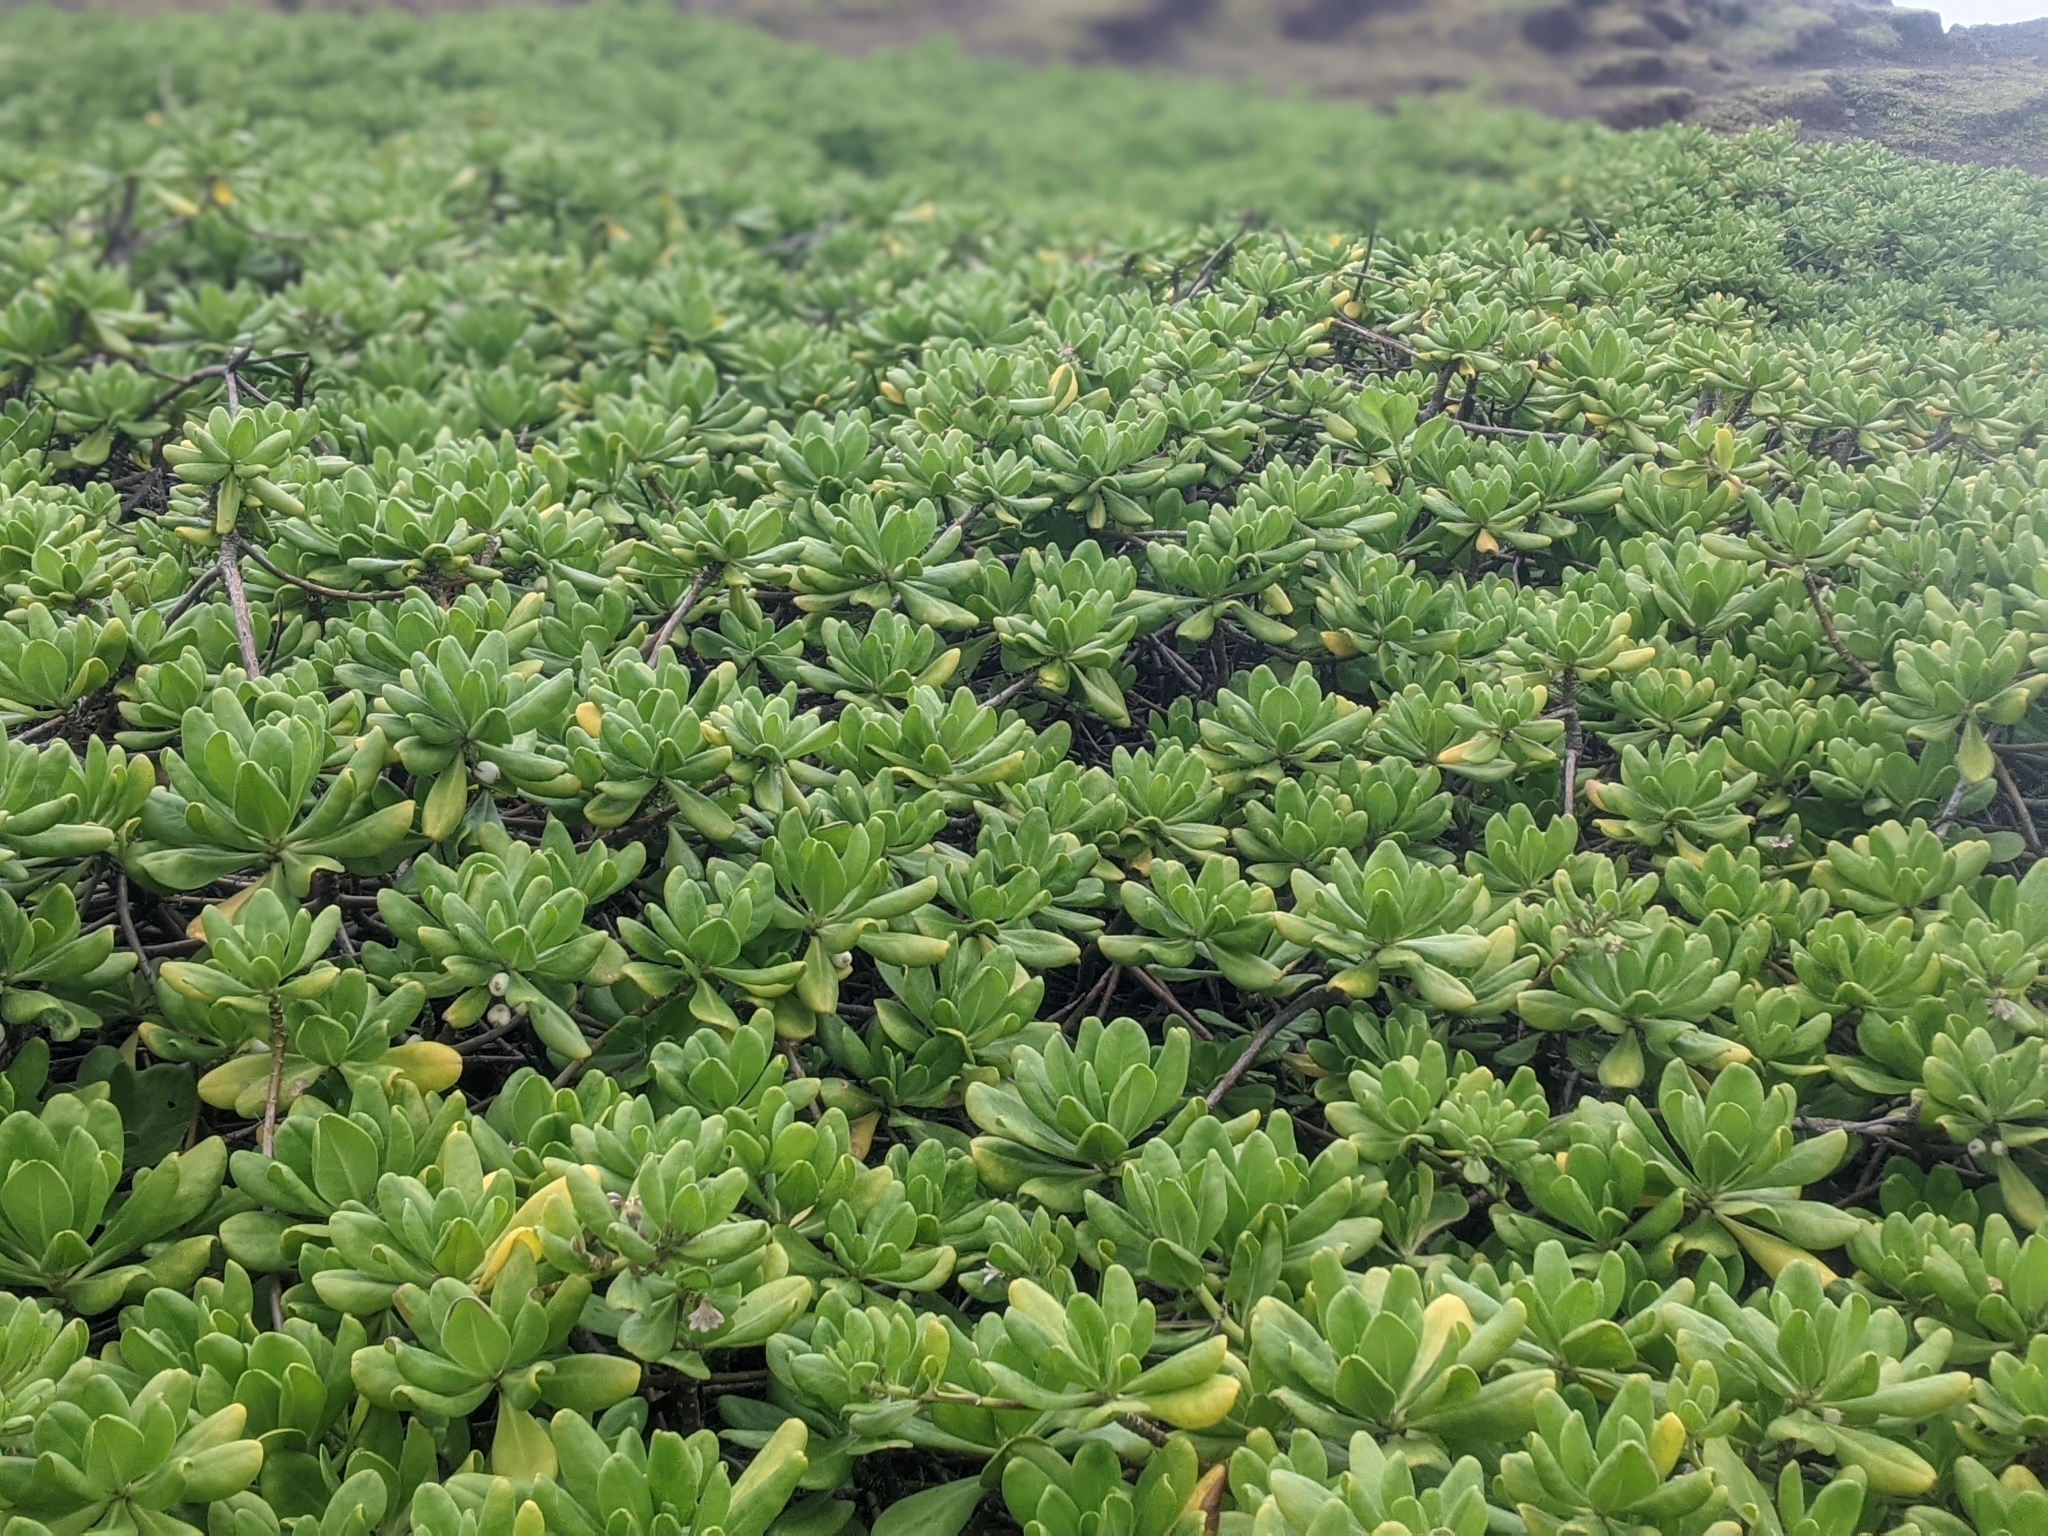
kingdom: Plantae
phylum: Tracheophyta
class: Magnoliopsida
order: Asterales
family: Goodeniaceae
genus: Scaevola
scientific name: Scaevola taccada
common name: Sea lettucetree
